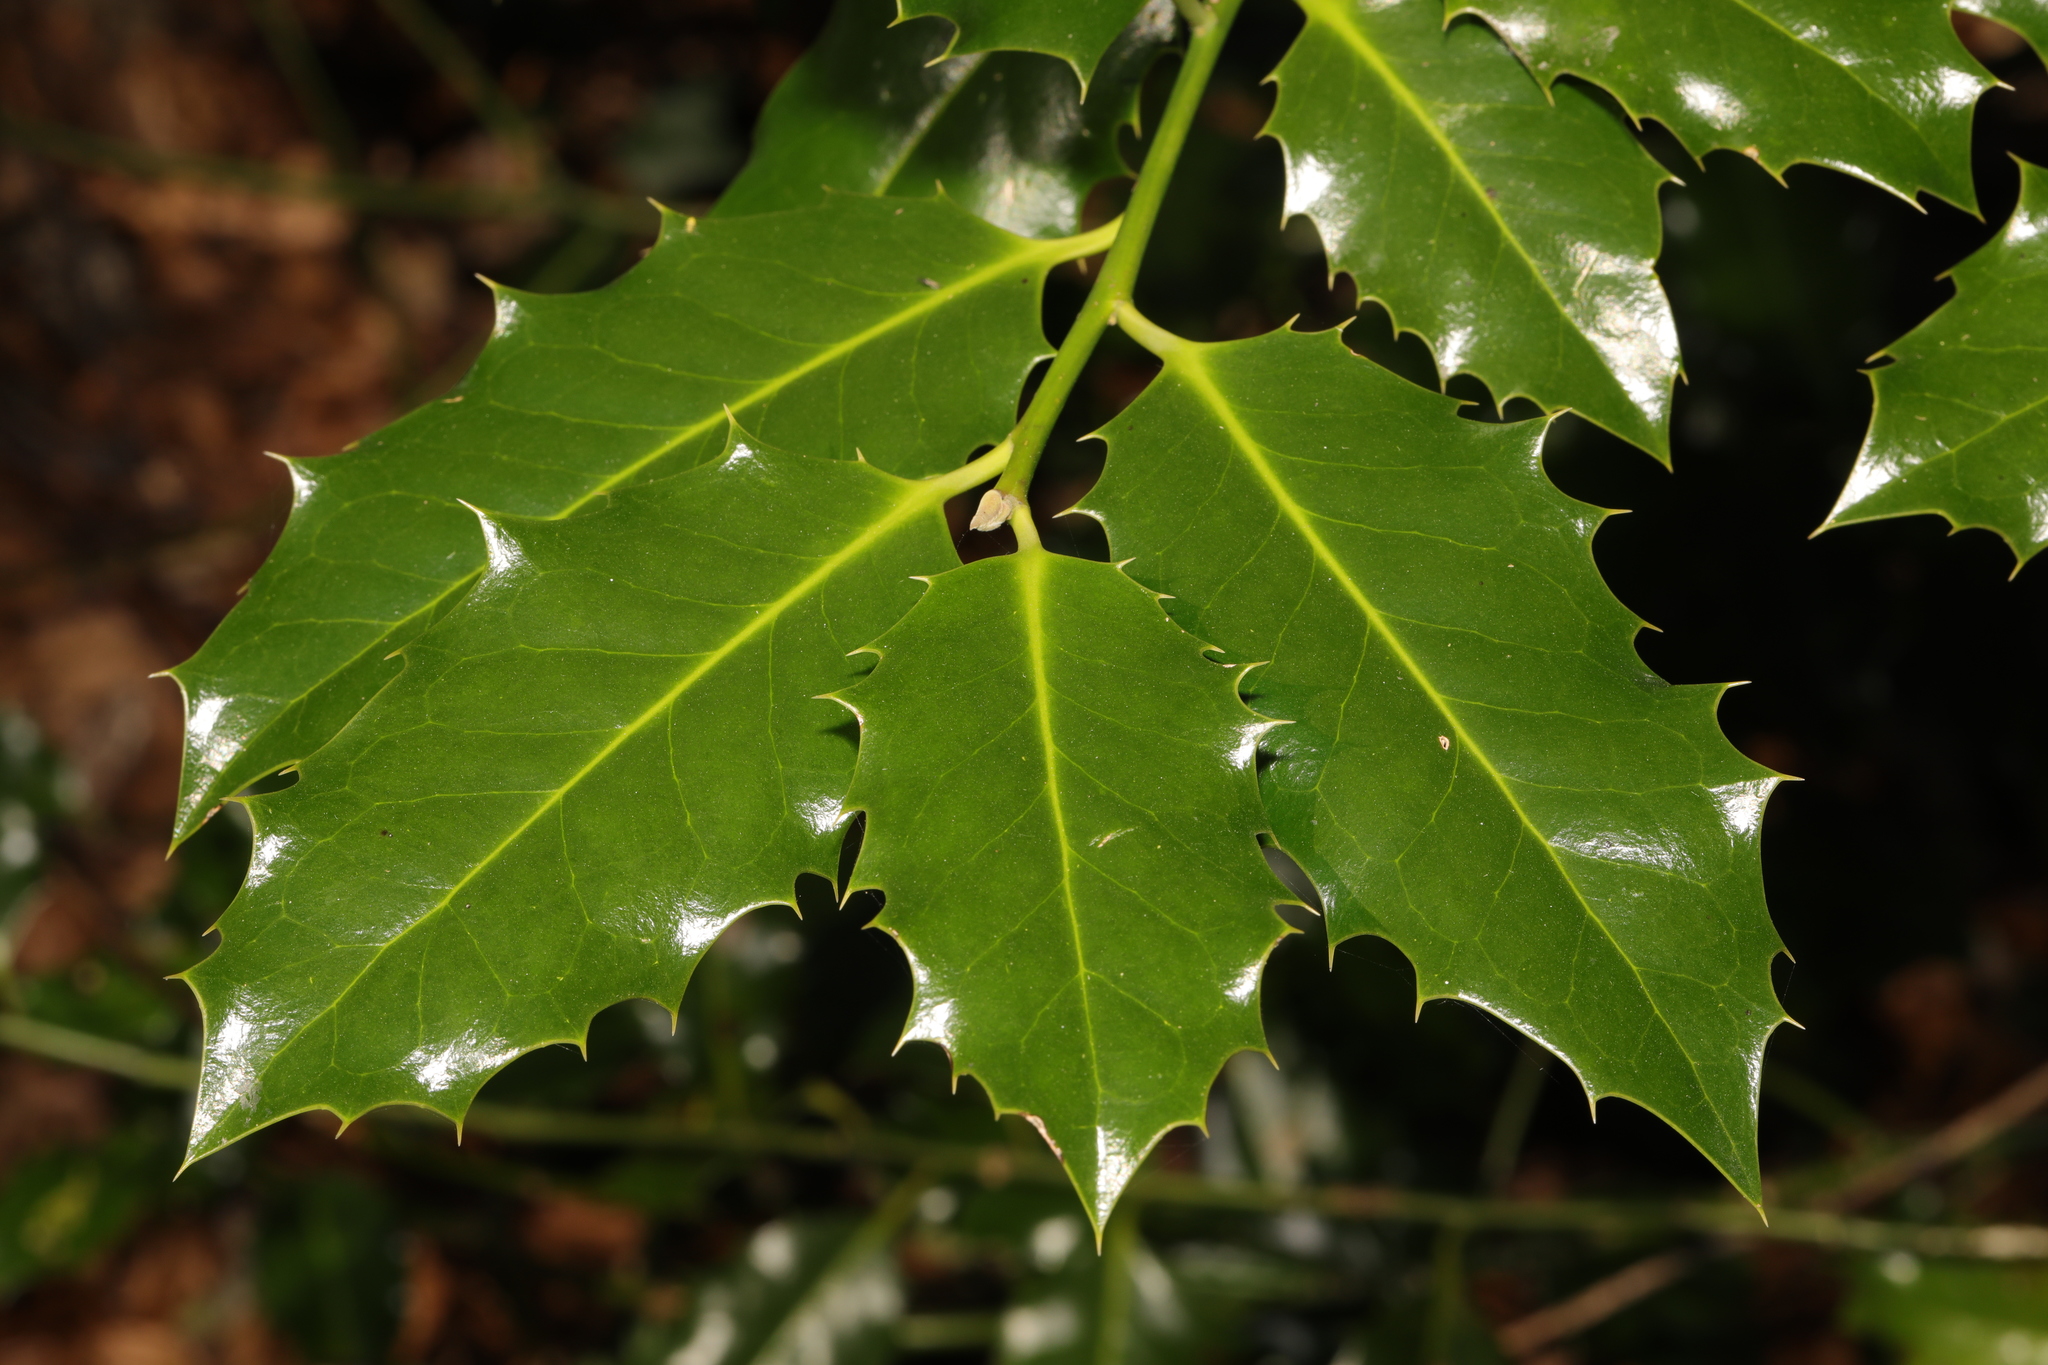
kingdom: Plantae
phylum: Tracheophyta
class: Magnoliopsida
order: Aquifoliales
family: Aquifoliaceae
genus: Ilex
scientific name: Ilex aquifolium
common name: English holly
